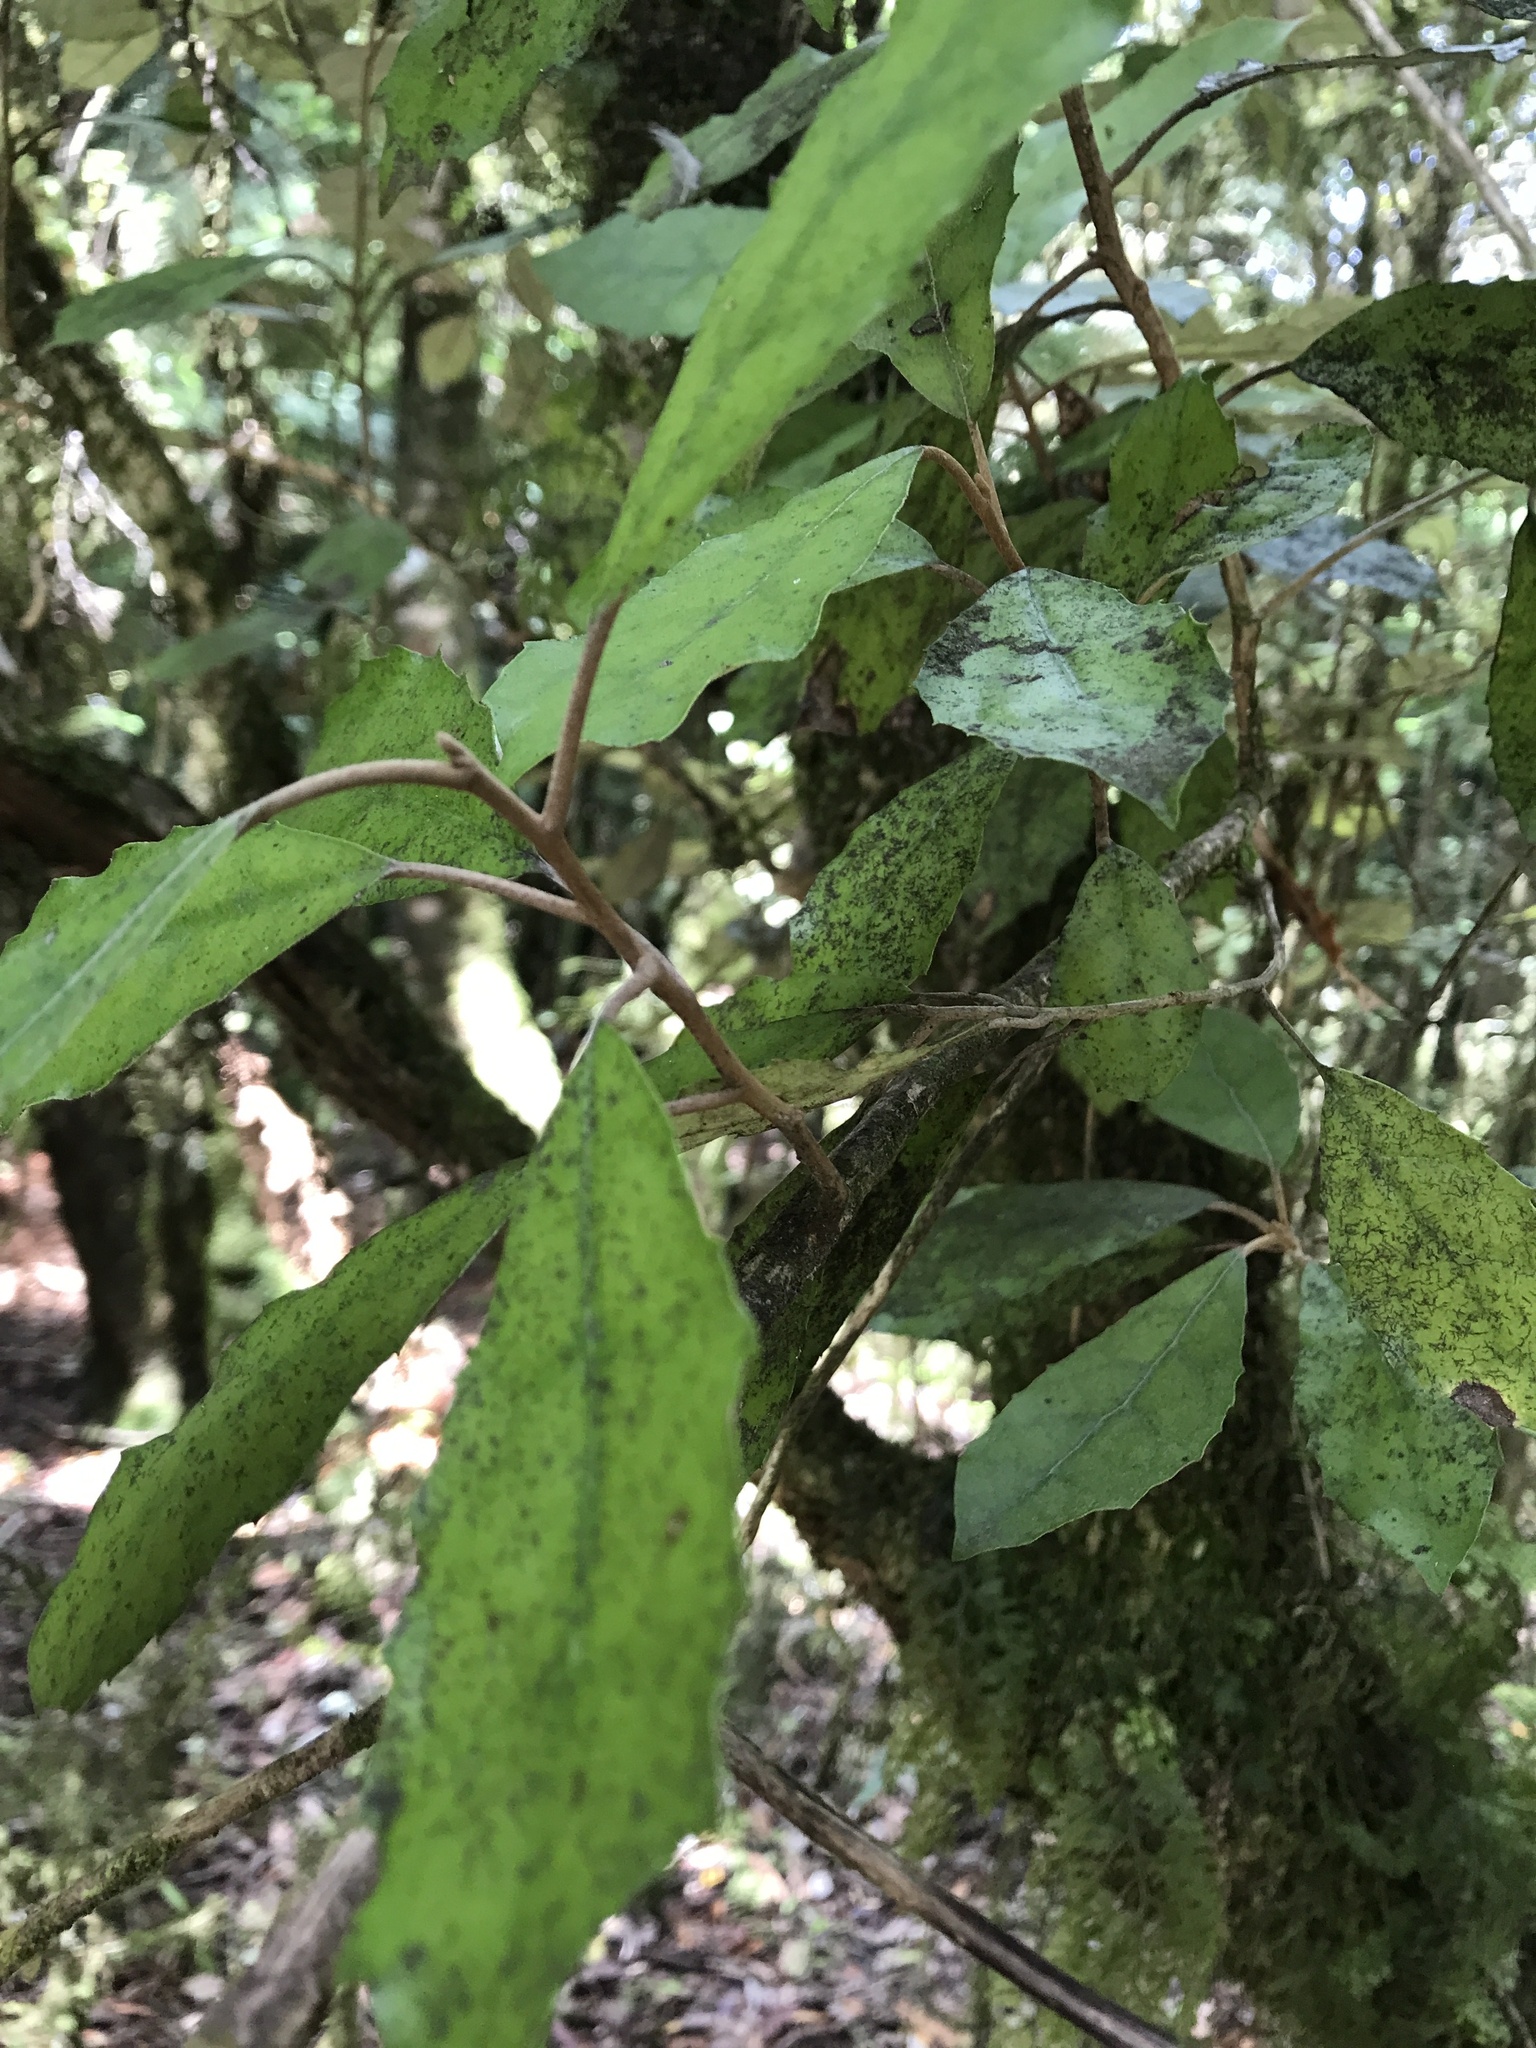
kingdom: Plantae
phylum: Tracheophyta
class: Magnoliopsida
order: Asterales
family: Asteraceae
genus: Olearia
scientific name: Olearia rani
